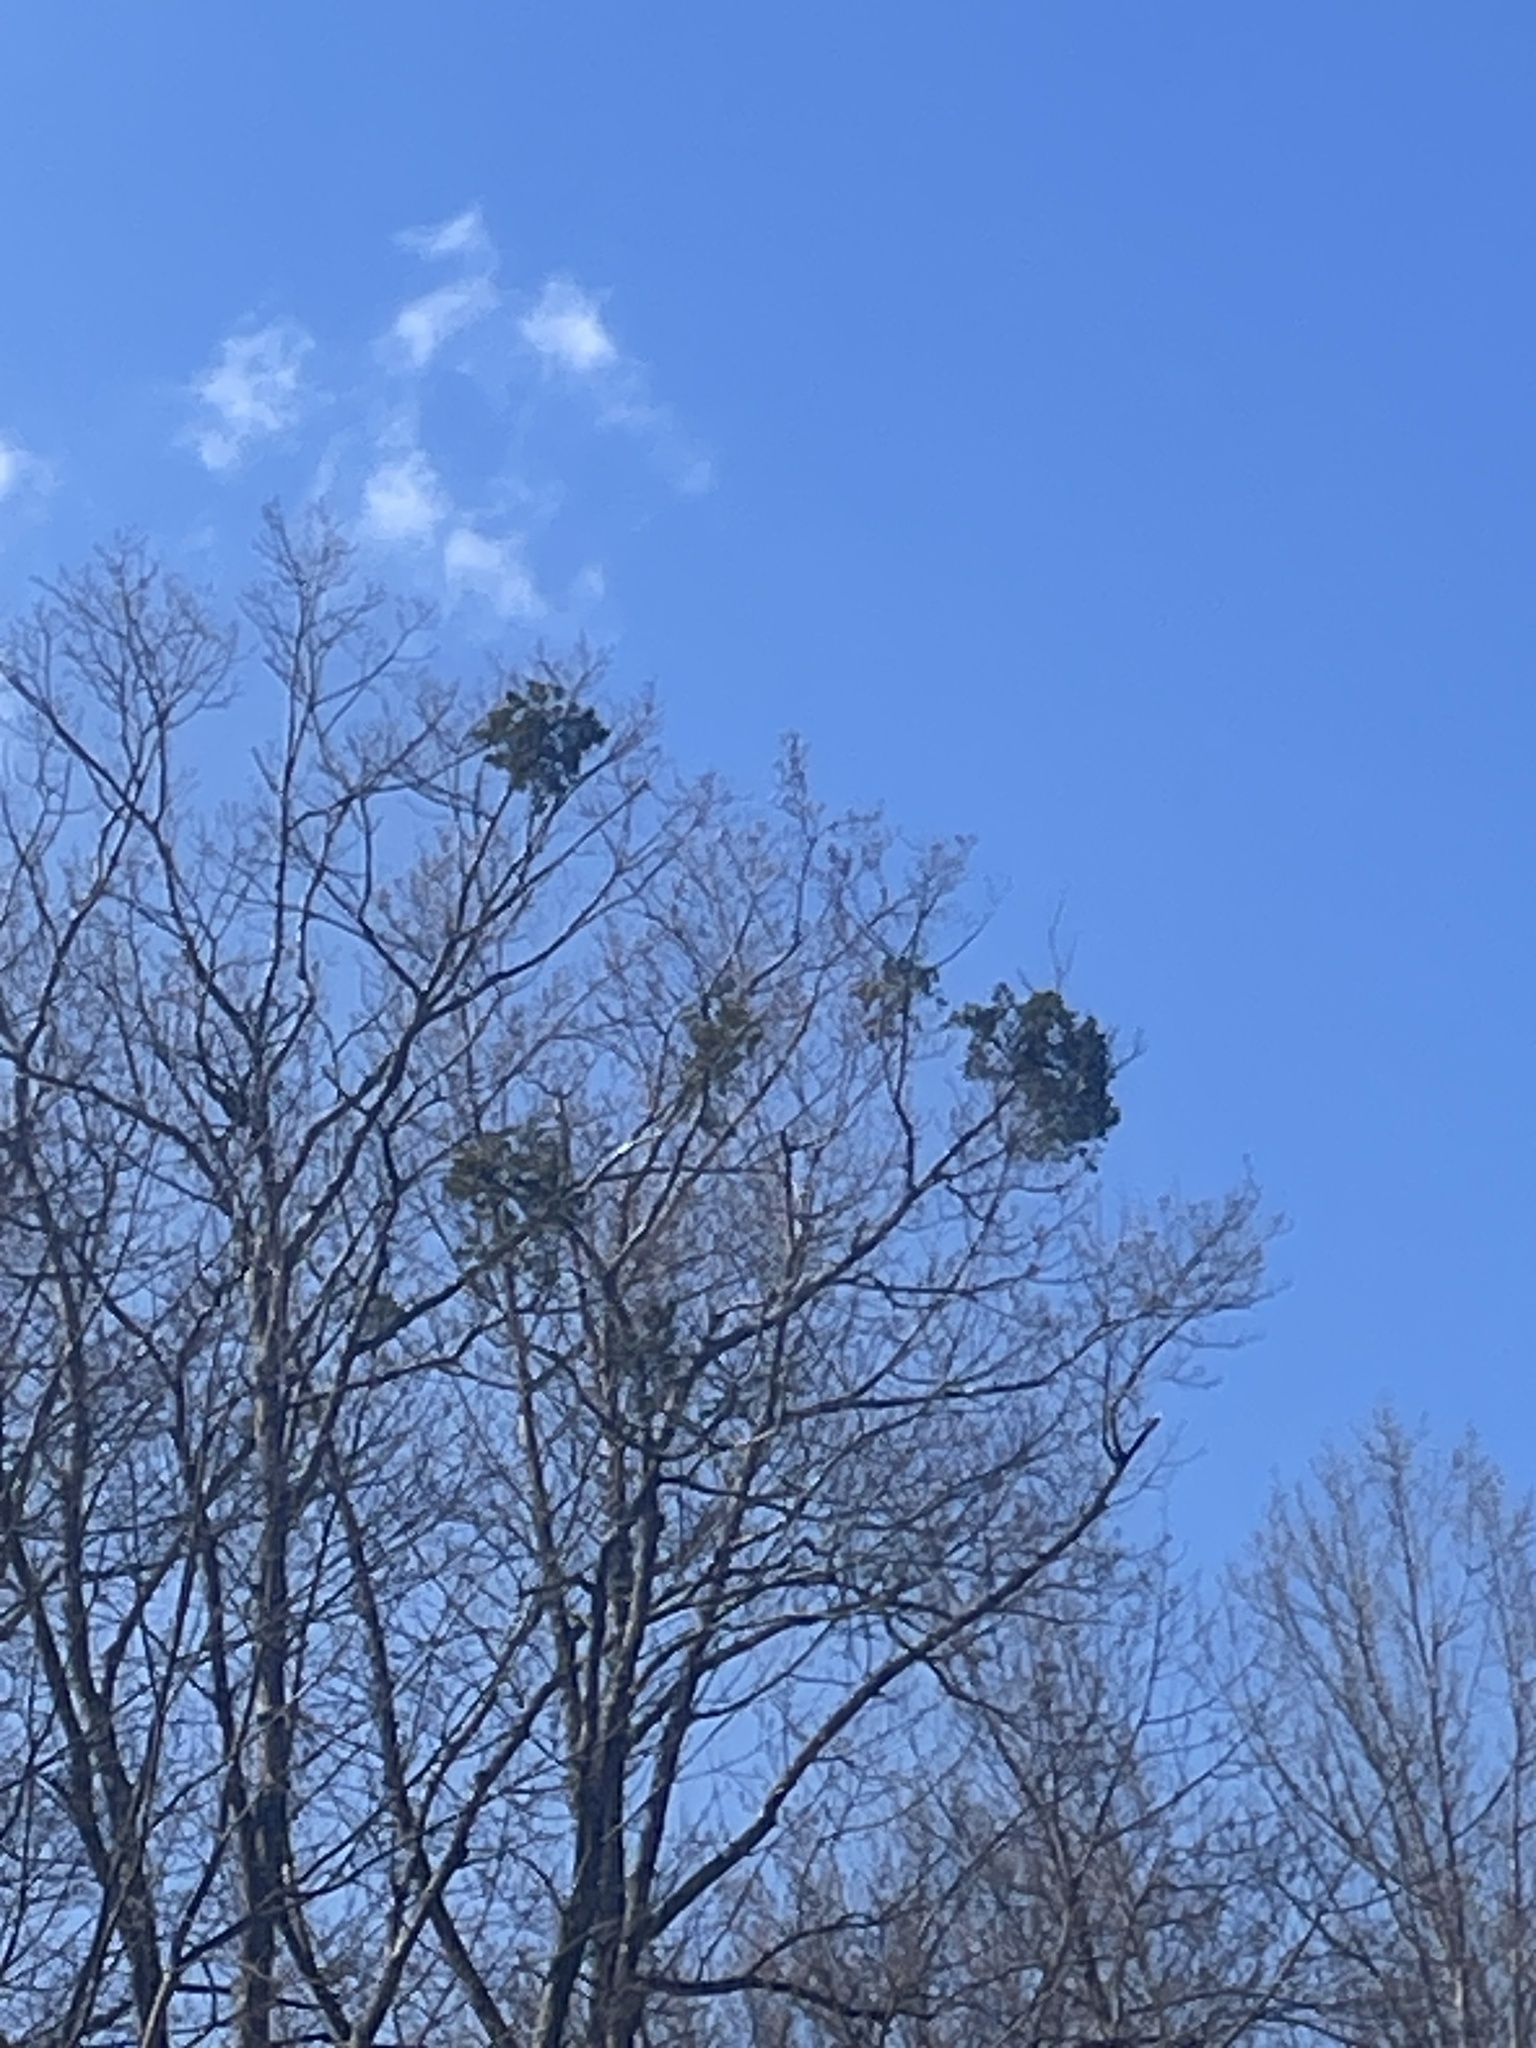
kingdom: Plantae
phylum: Tracheophyta
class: Magnoliopsida
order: Santalales
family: Viscaceae
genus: Phoradendron
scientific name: Phoradendron leucarpum
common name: Pacific mistletoe
